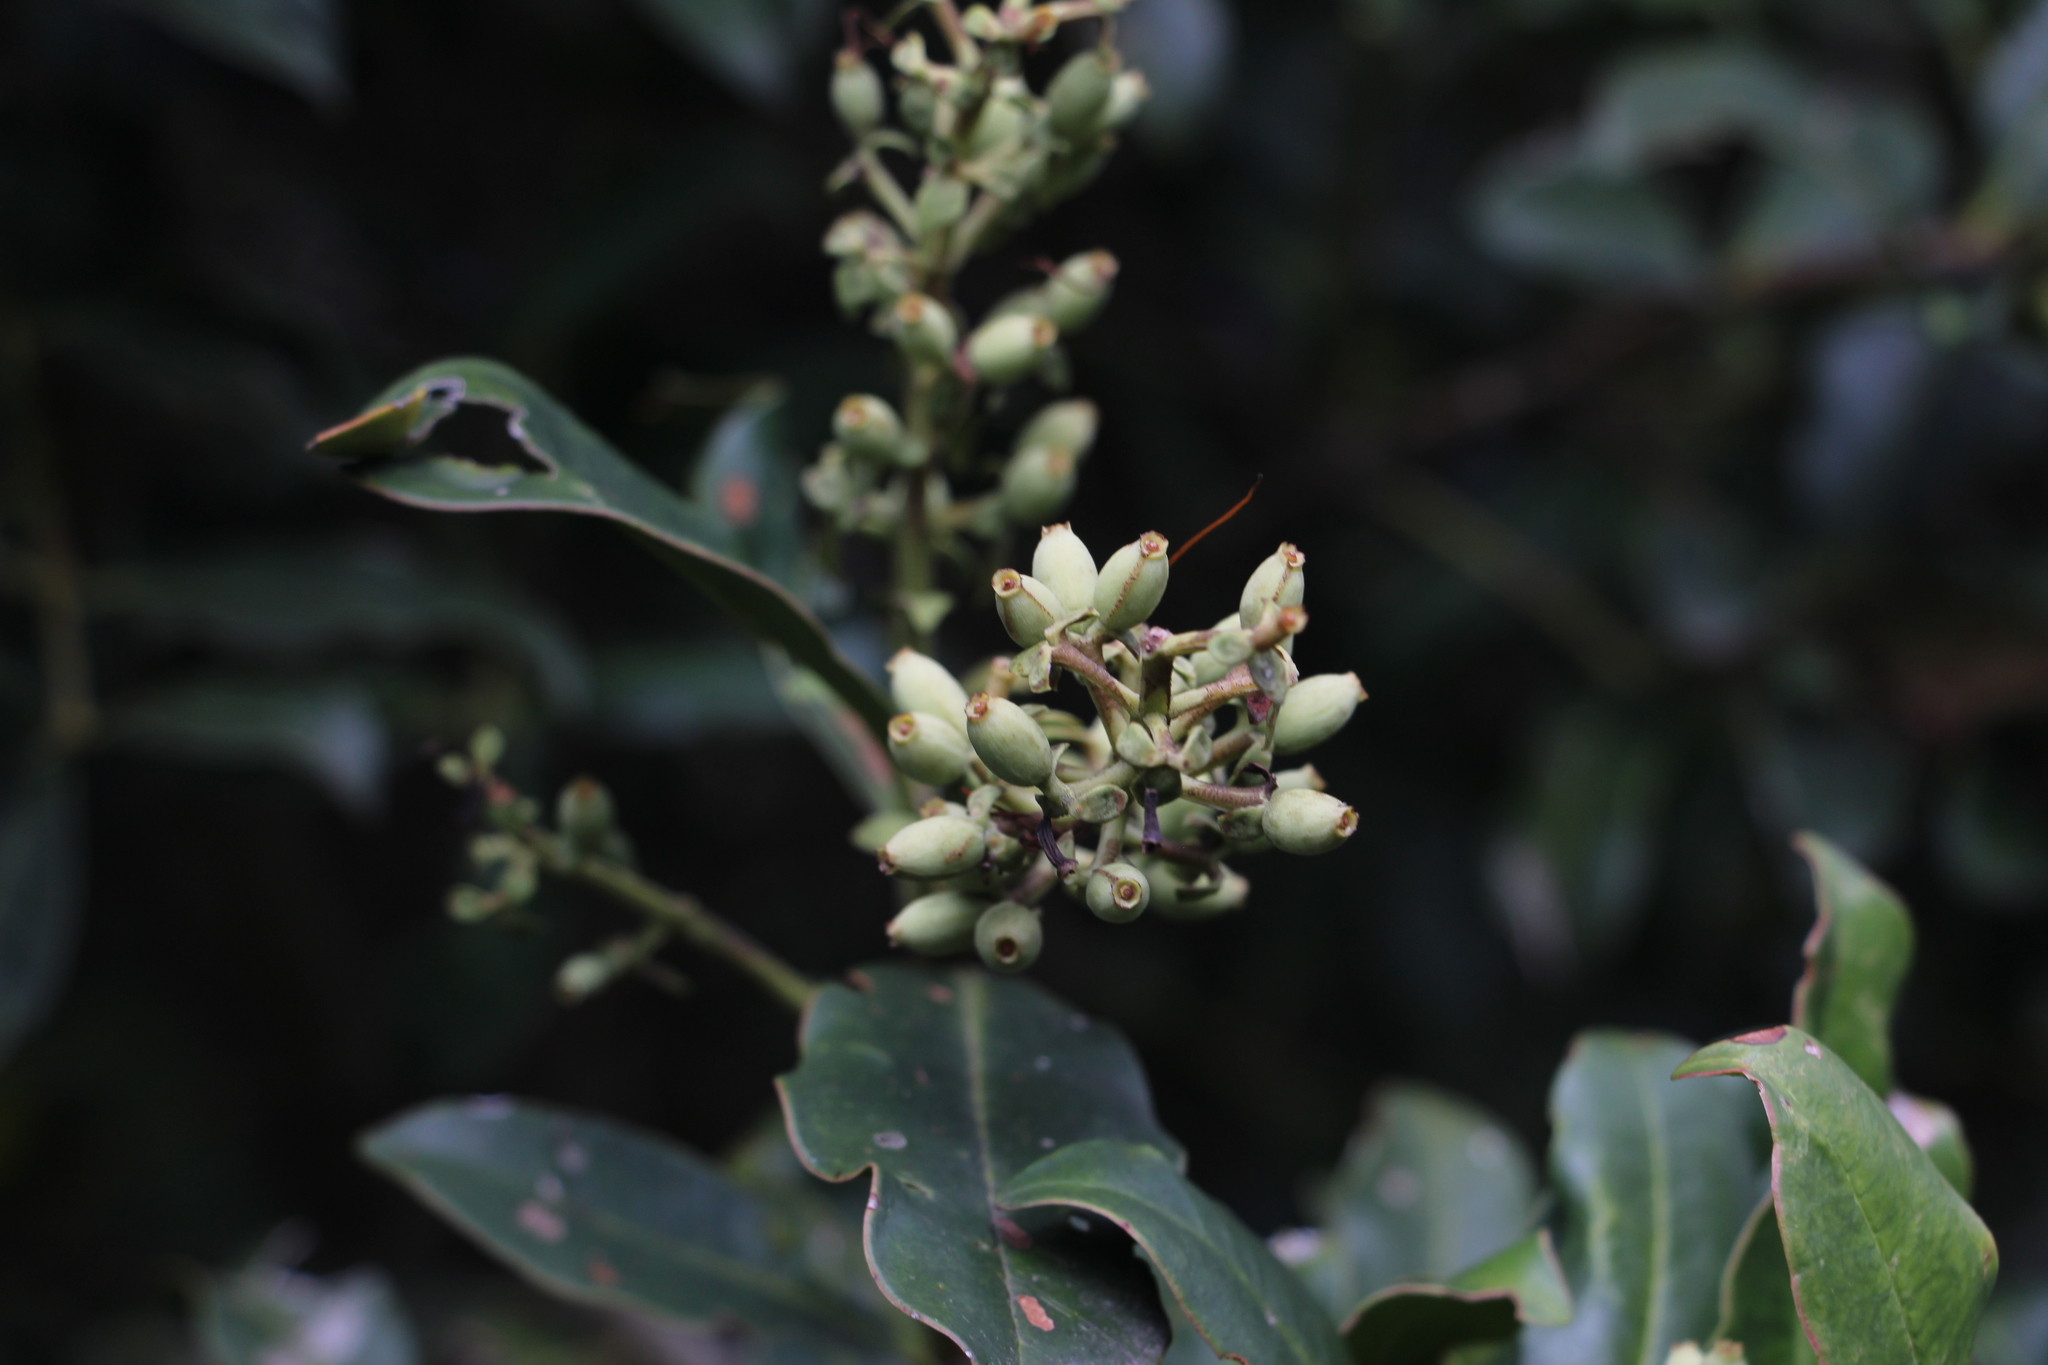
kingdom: Plantae
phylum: Tracheophyta
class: Magnoliopsida
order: Santalales
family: Loranthaceae
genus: Gaiadendron
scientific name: Gaiadendron punctatum
